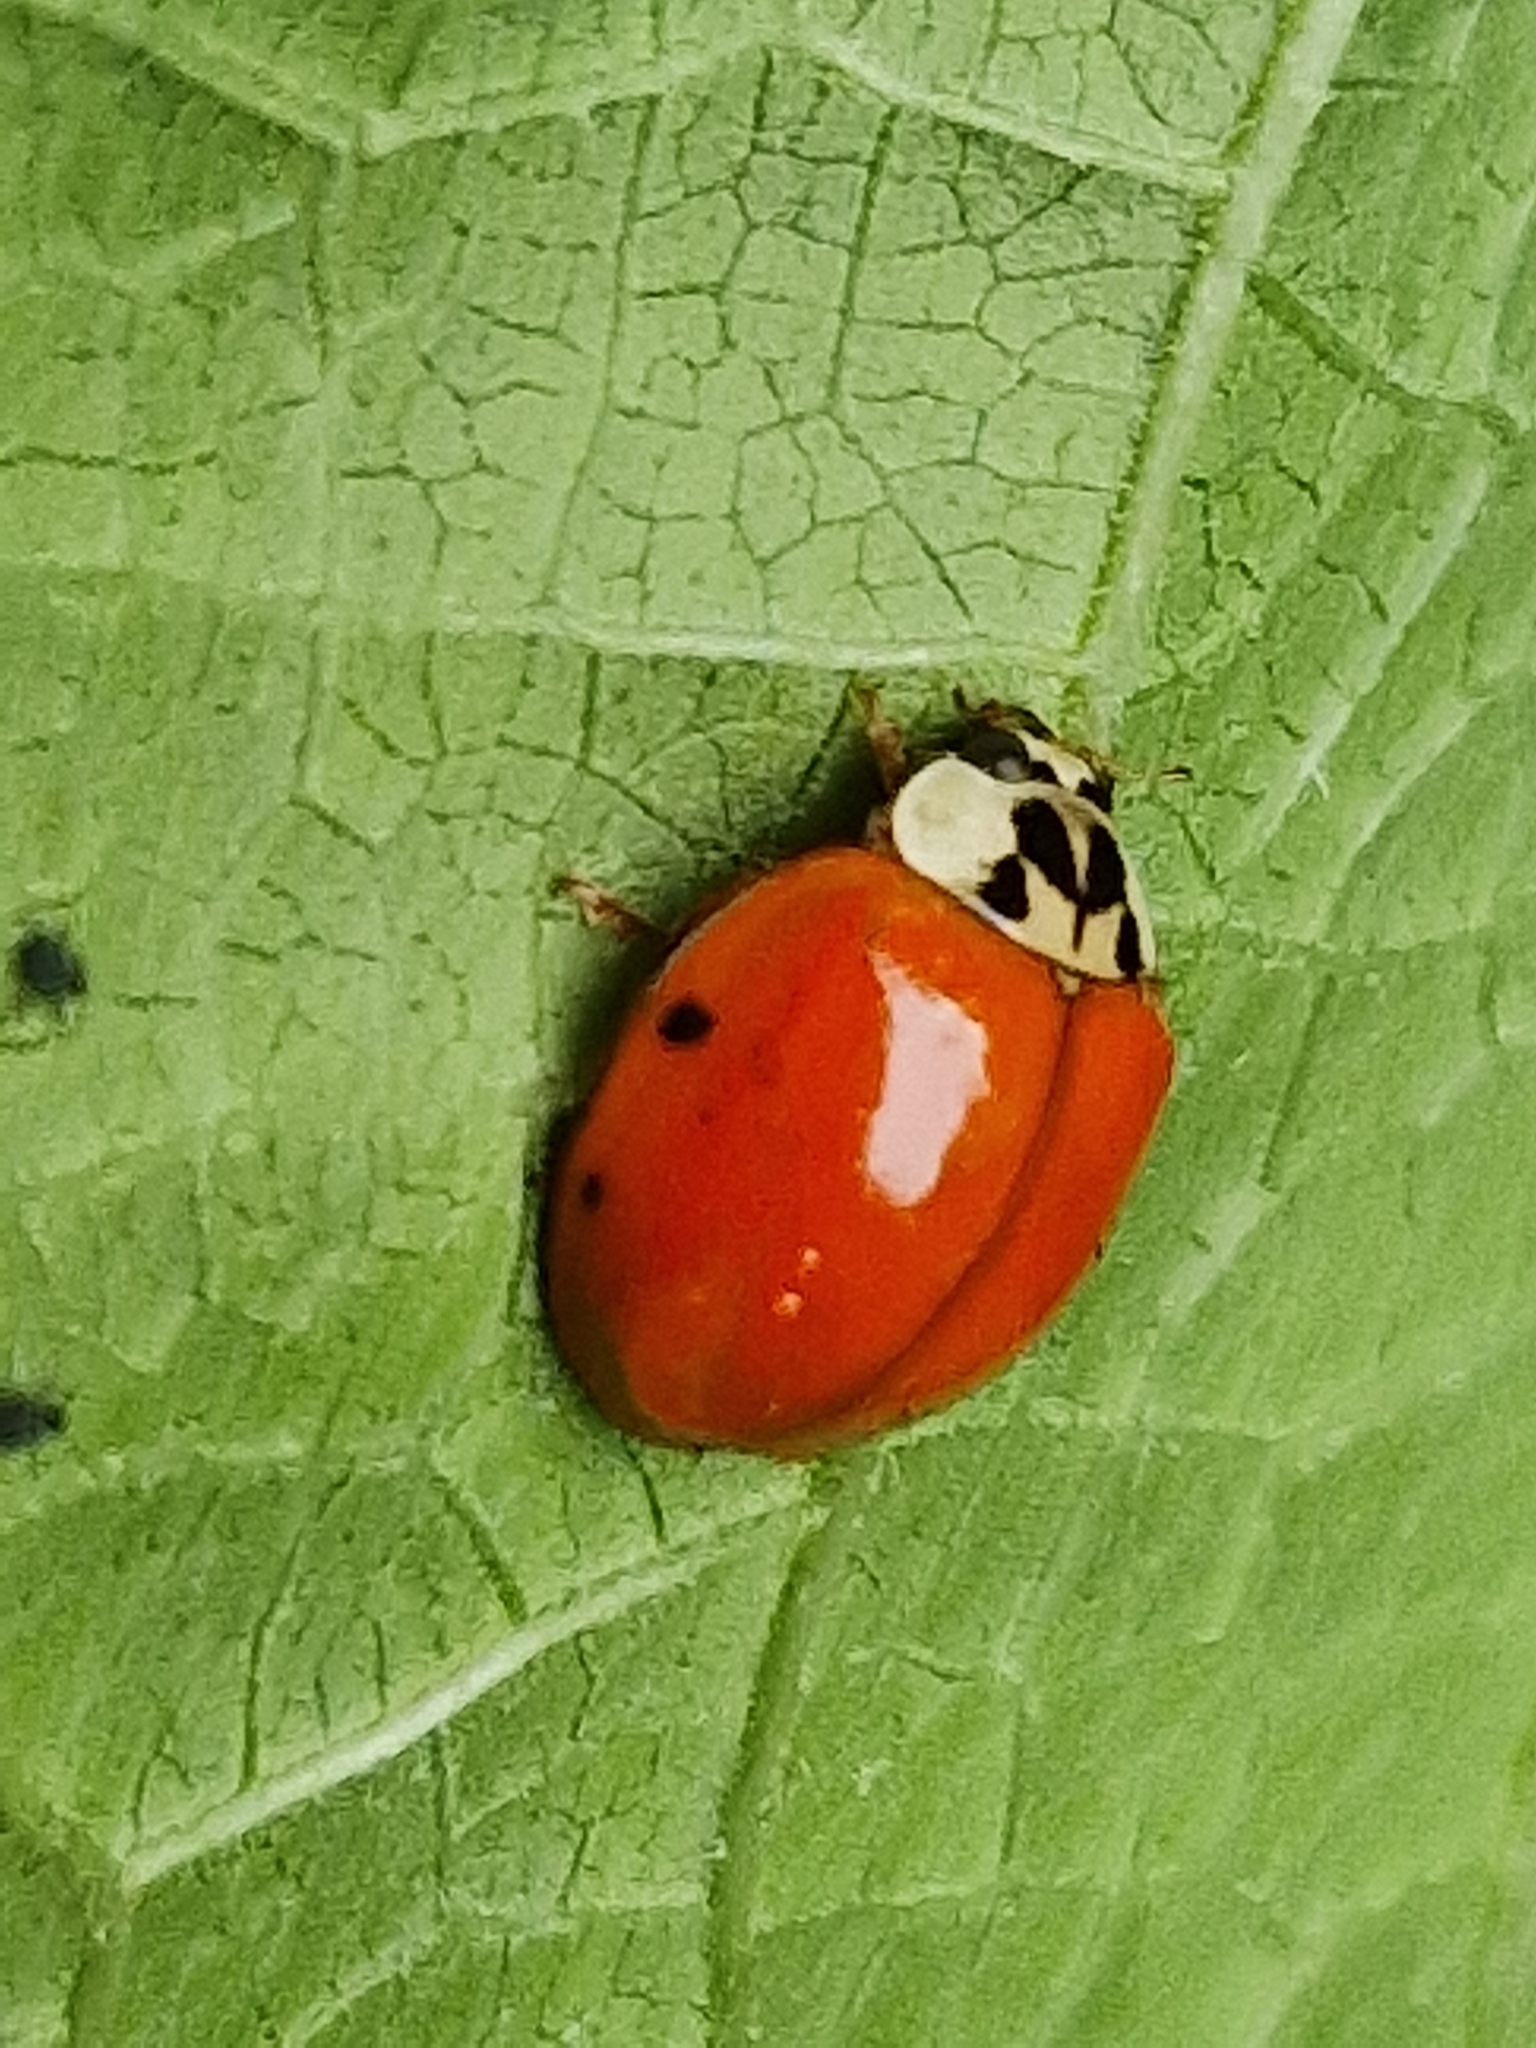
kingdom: Animalia
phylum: Arthropoda
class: Insecta
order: Coleoptera
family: Coccinellidae
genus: Harmonia
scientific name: Harmonia axyridis
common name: Harlequin ladybird
